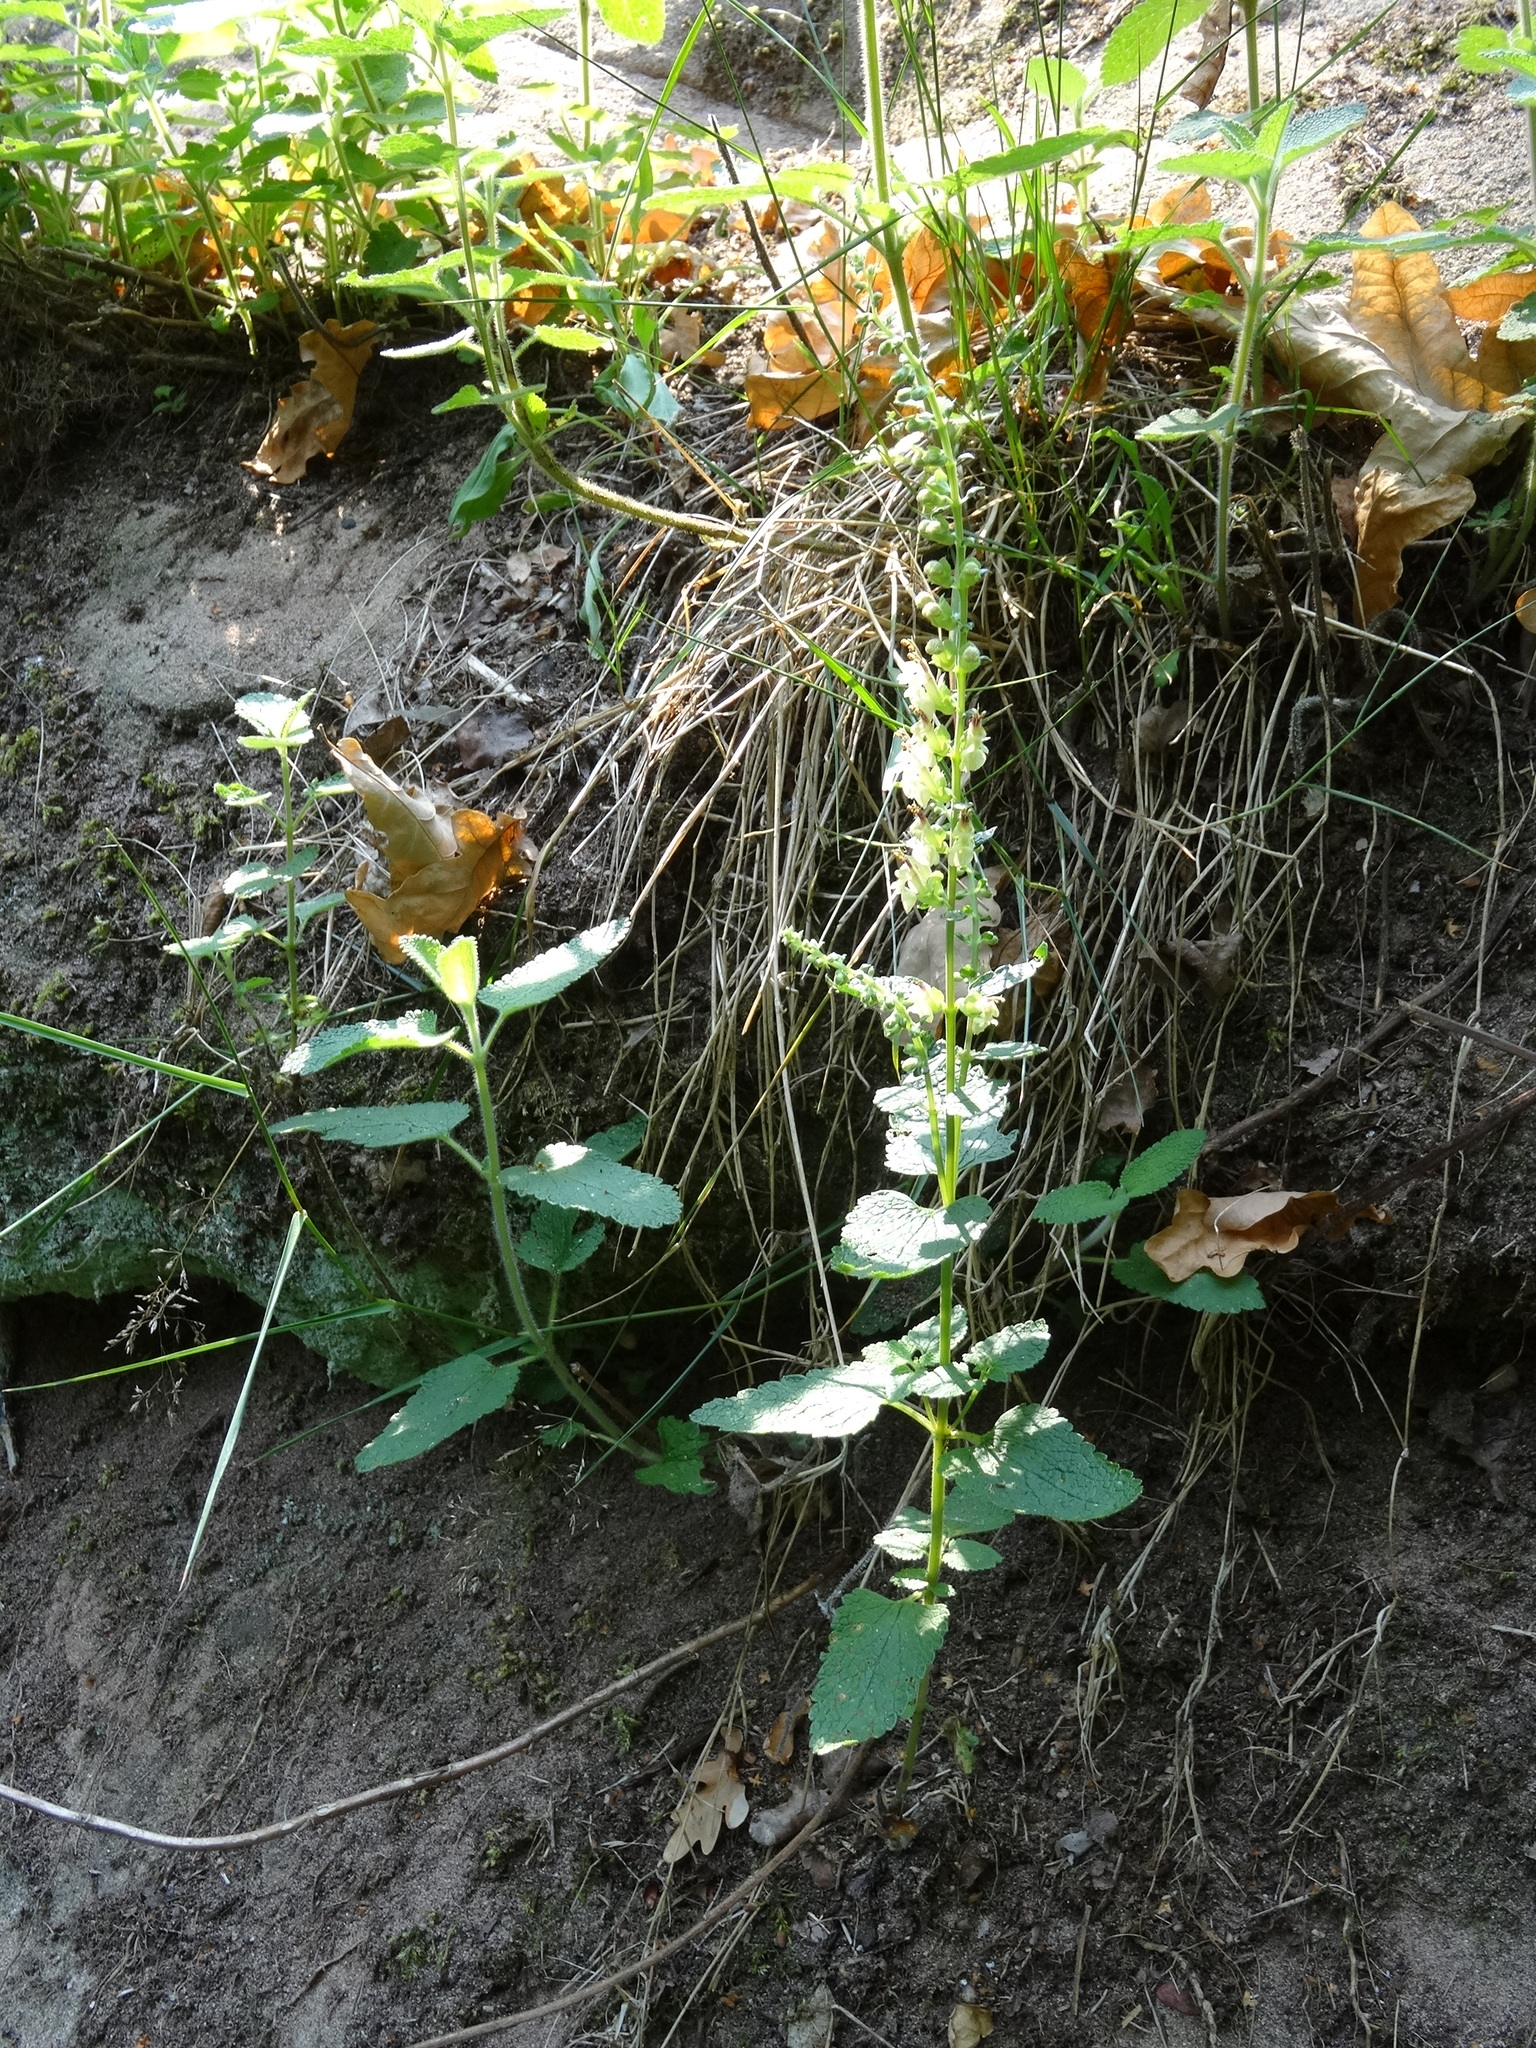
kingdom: Plantae
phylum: Tracheophyta
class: Magnoliopsida
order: Lamiales
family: Lamiaceae
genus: Teucrium
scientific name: Teucrium scorodonia
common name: Woodland germander
